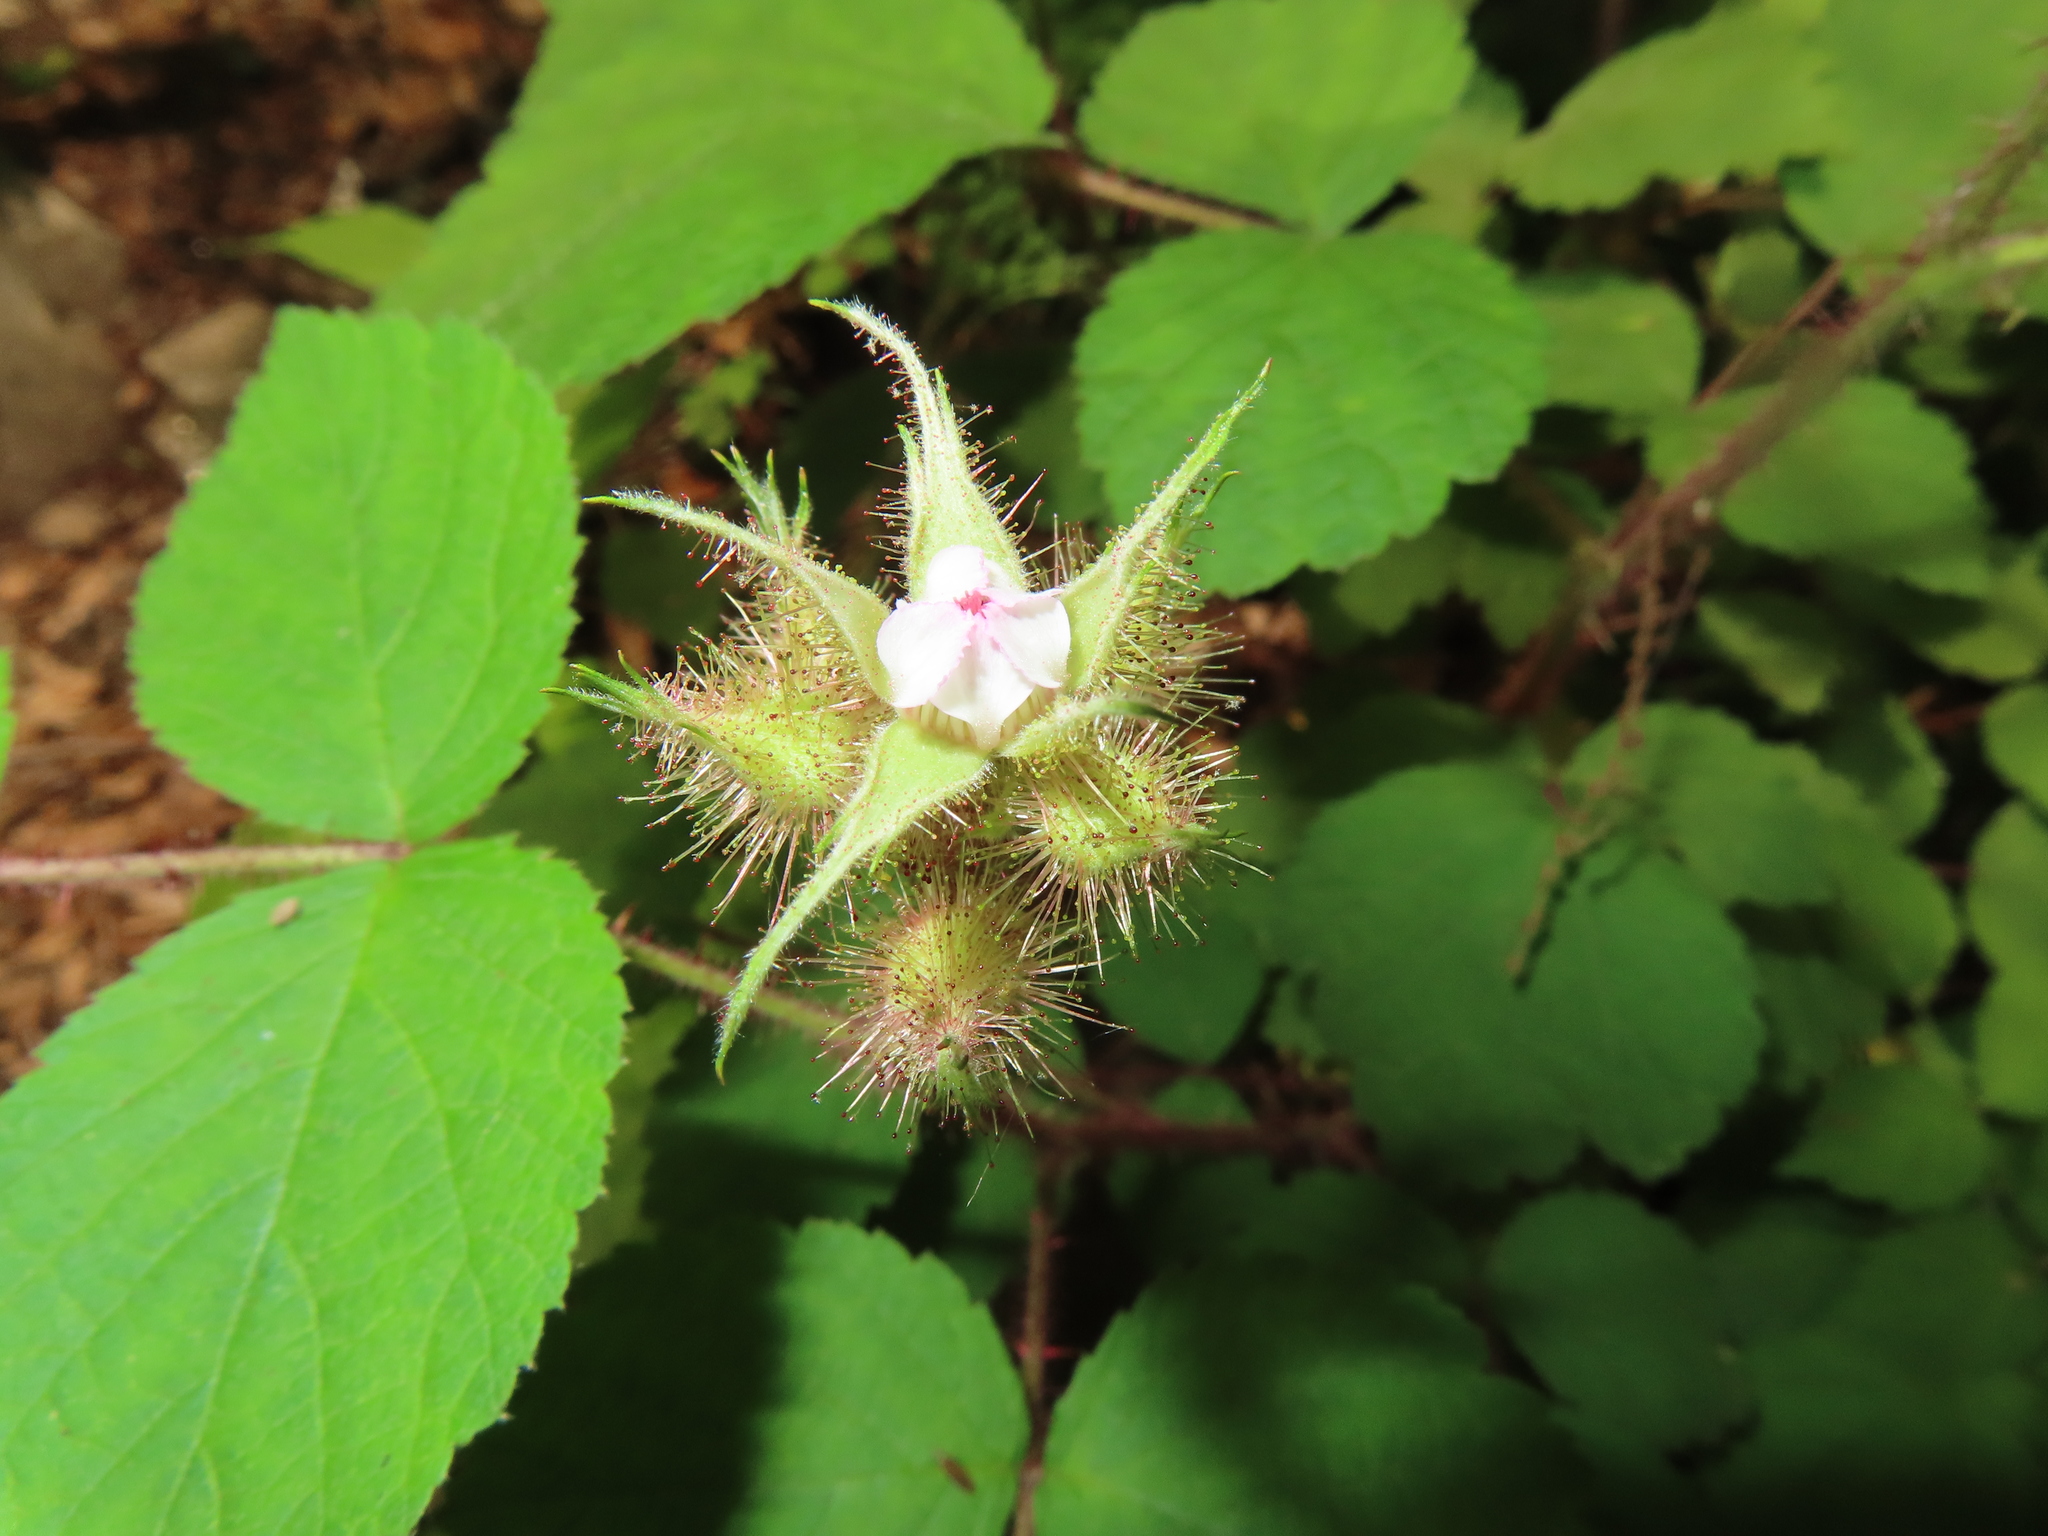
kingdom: Plantae
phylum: Tracheophyta
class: Magnoliopsida
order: Rosales
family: Rosaceae
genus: Rubus
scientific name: Rubus phoenicolasius
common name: Japanese wineberry
